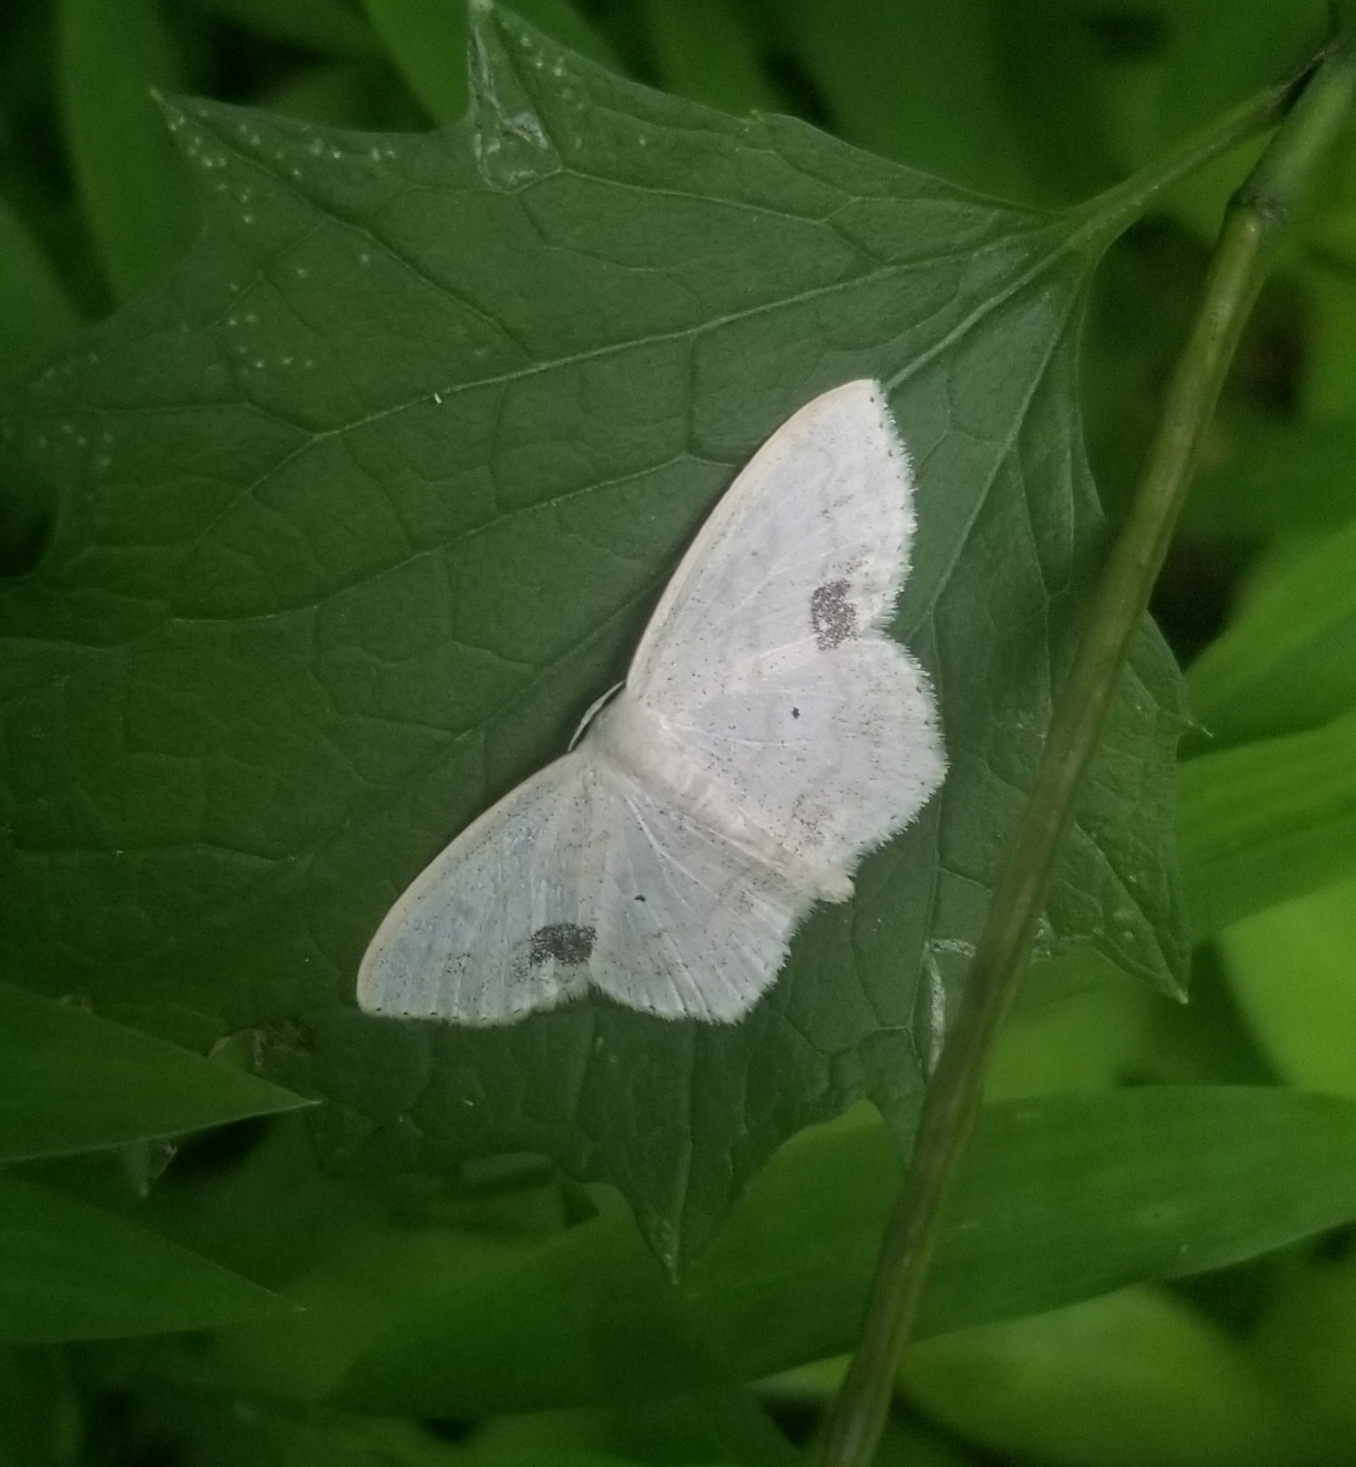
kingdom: Animalia
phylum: Arthropoda
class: Insecta
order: Lepidoptera
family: Geometridae
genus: Scopula
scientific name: Scopula limboundata
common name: Large lace border
